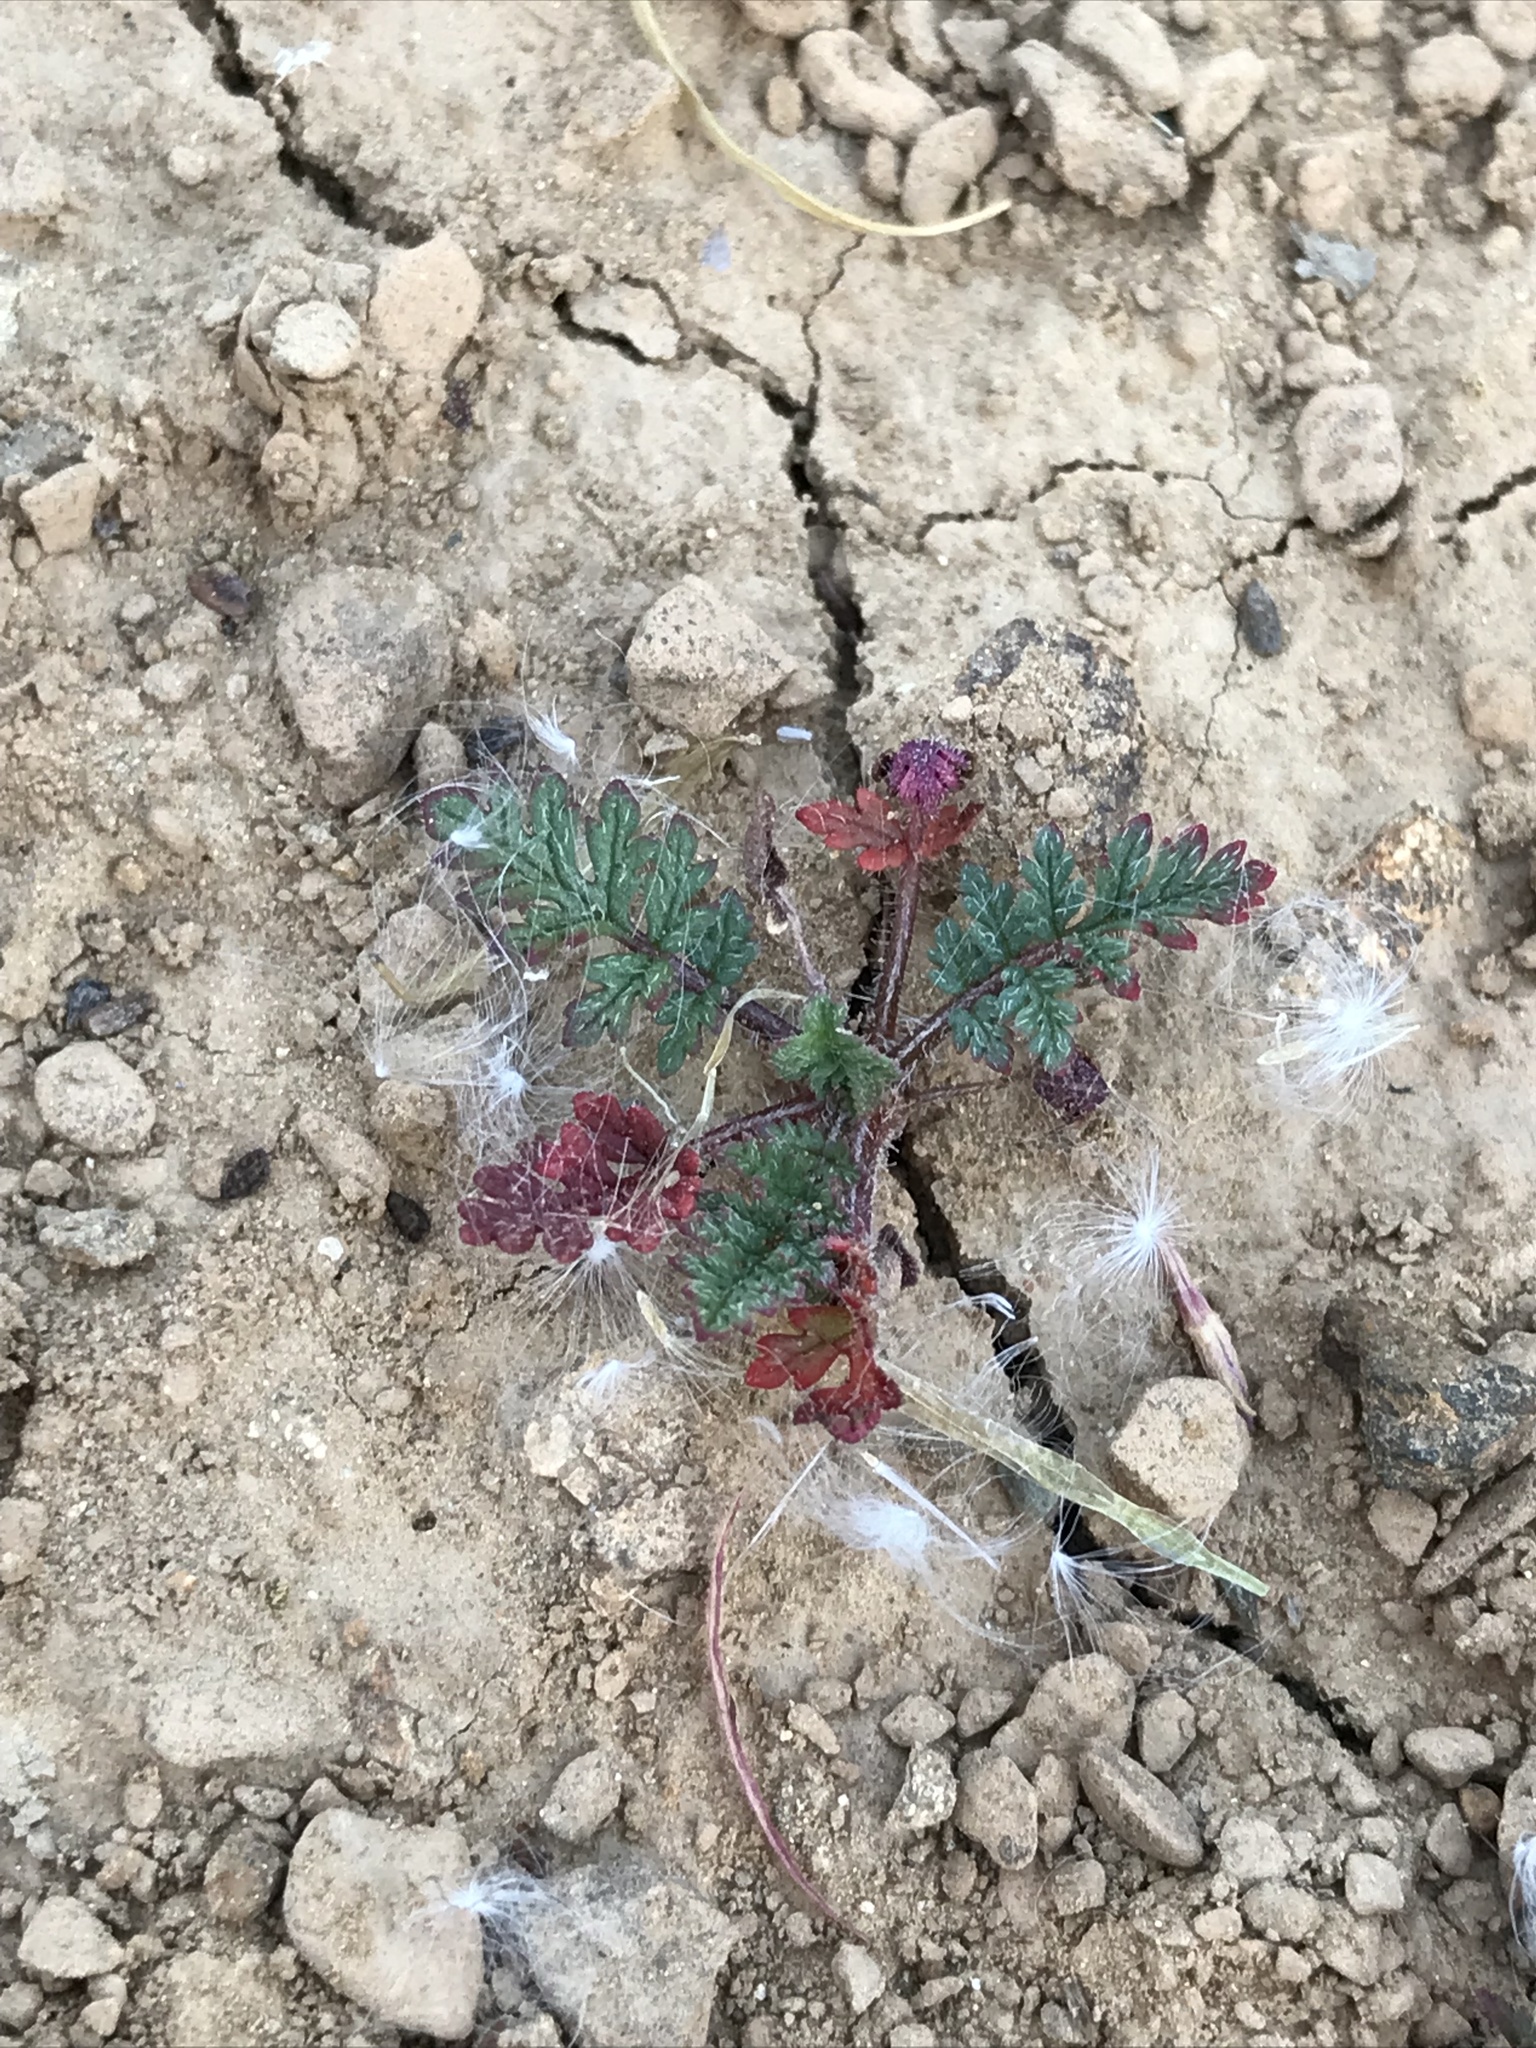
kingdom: Plantae
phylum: Tracheophyta
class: Magnoliopsida
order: Geraniales
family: Geraniaceae
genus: Erodium
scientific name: Erodium cicutarium
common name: Common stork's-bill
